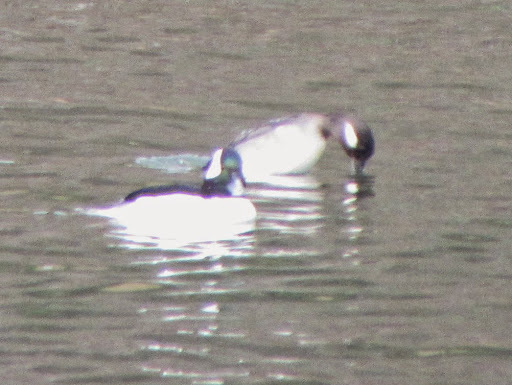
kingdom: Animalia
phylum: Chordata
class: Aves
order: Anseriformes
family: Anatidae
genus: Bucephala
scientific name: Bucephala albeola
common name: Bufflehead
